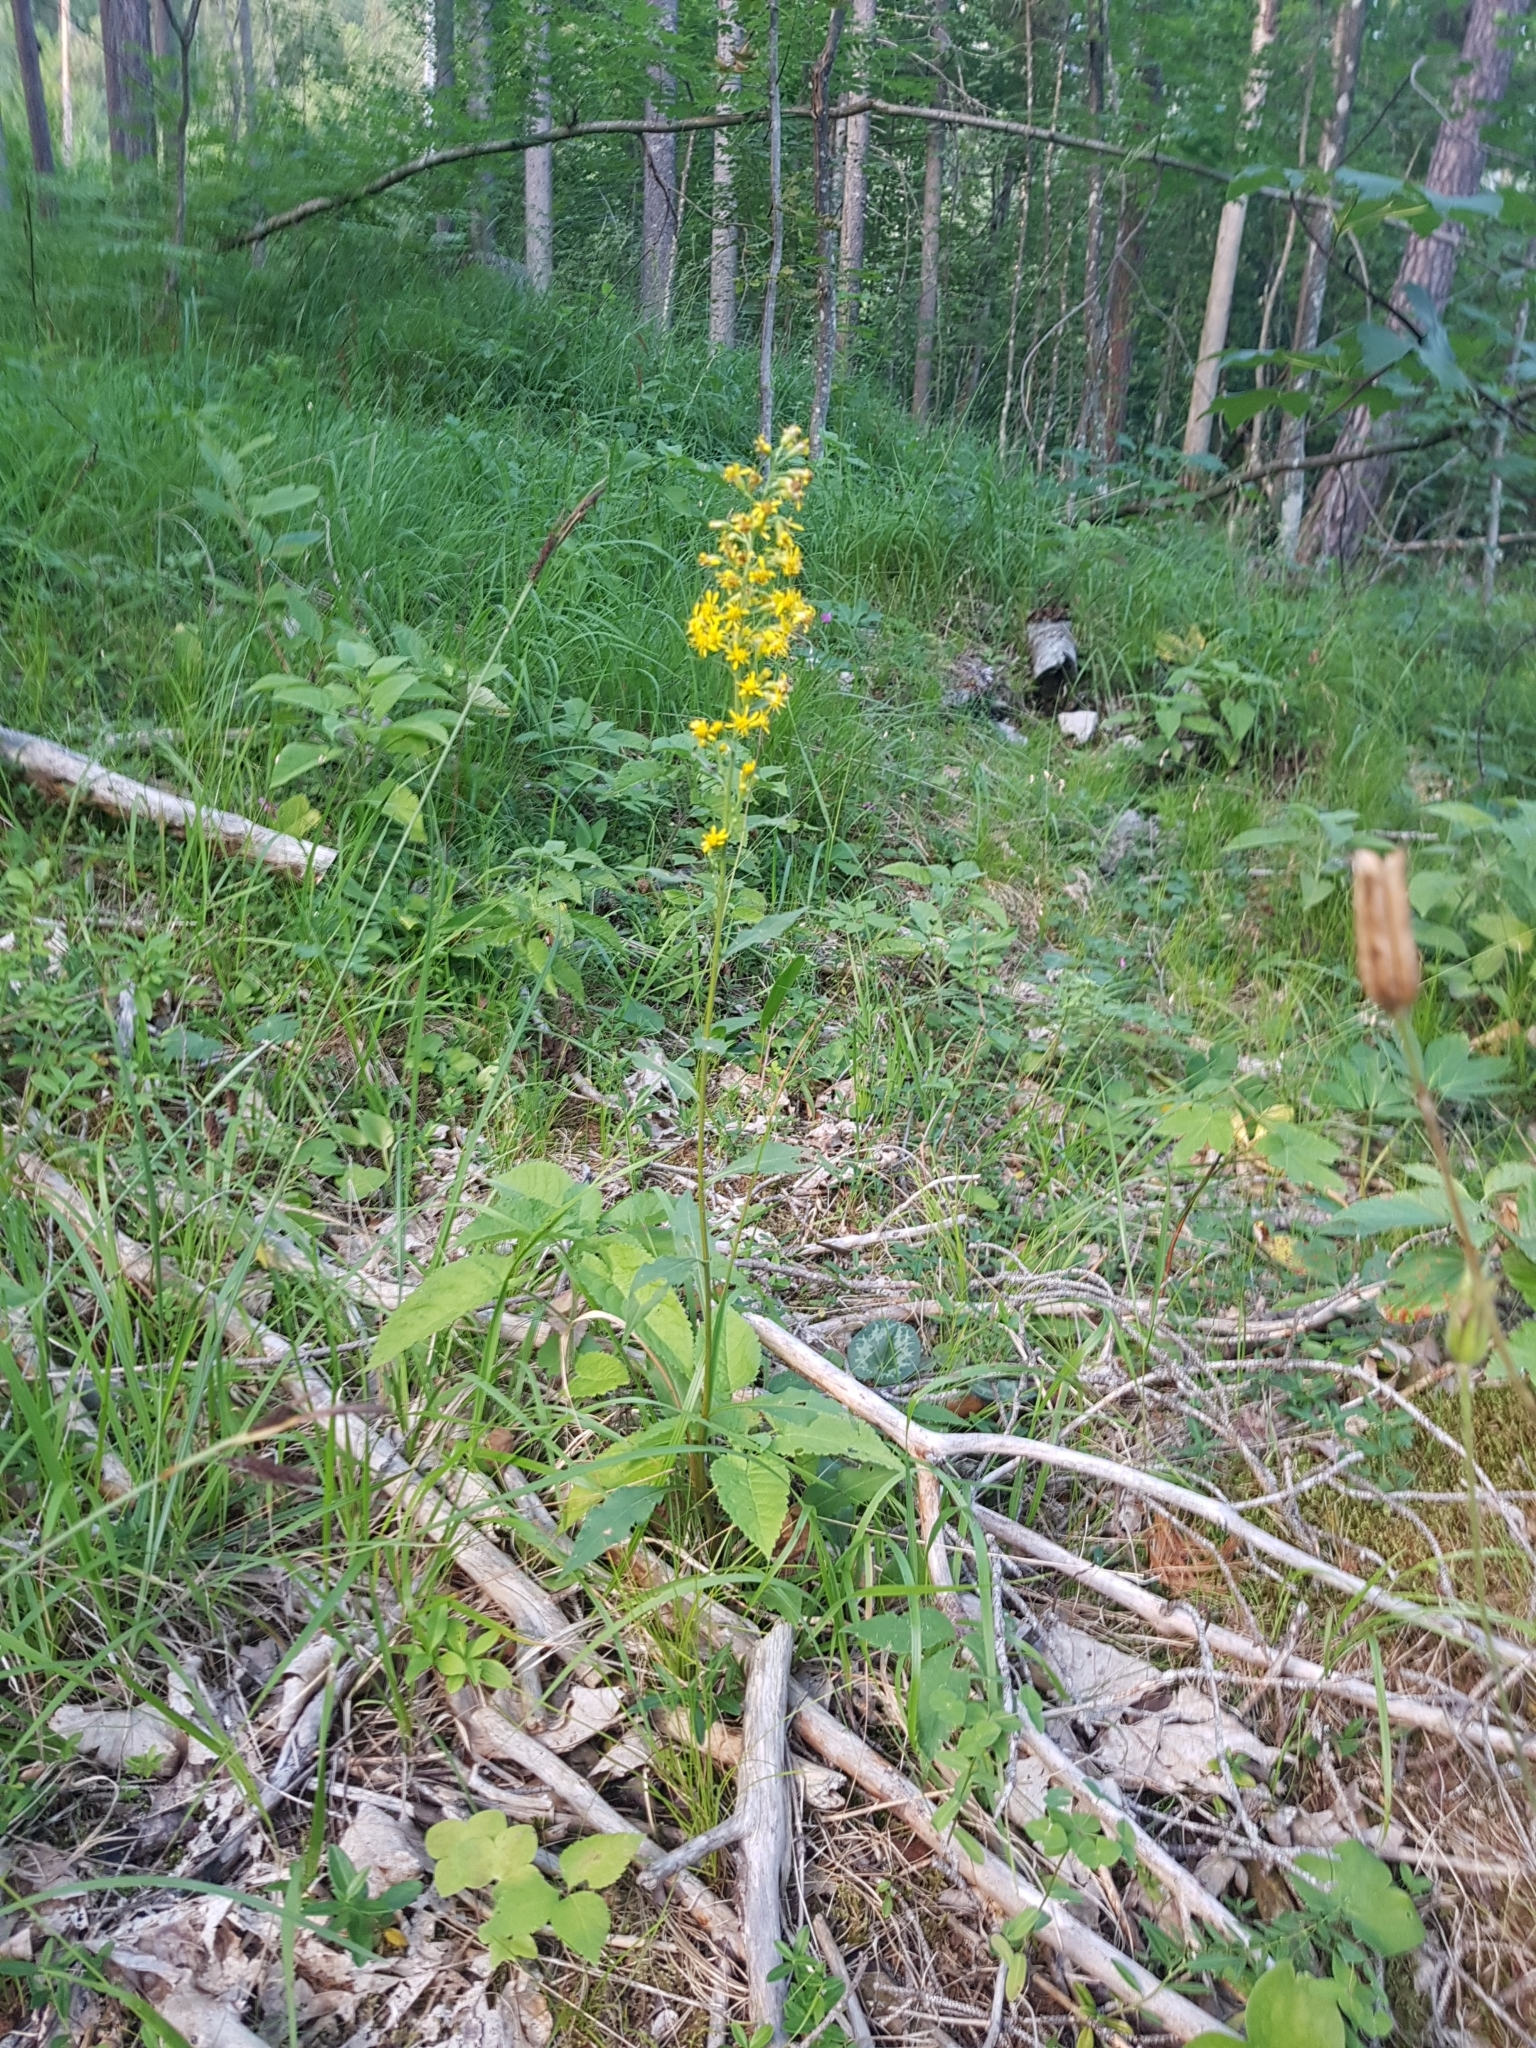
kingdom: Plantae
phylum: Tracheophyta
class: Magnoliopsida
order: Asterales
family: Asteraceae
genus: Solidago
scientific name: Solidago virgaurea
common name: Goldenrod
